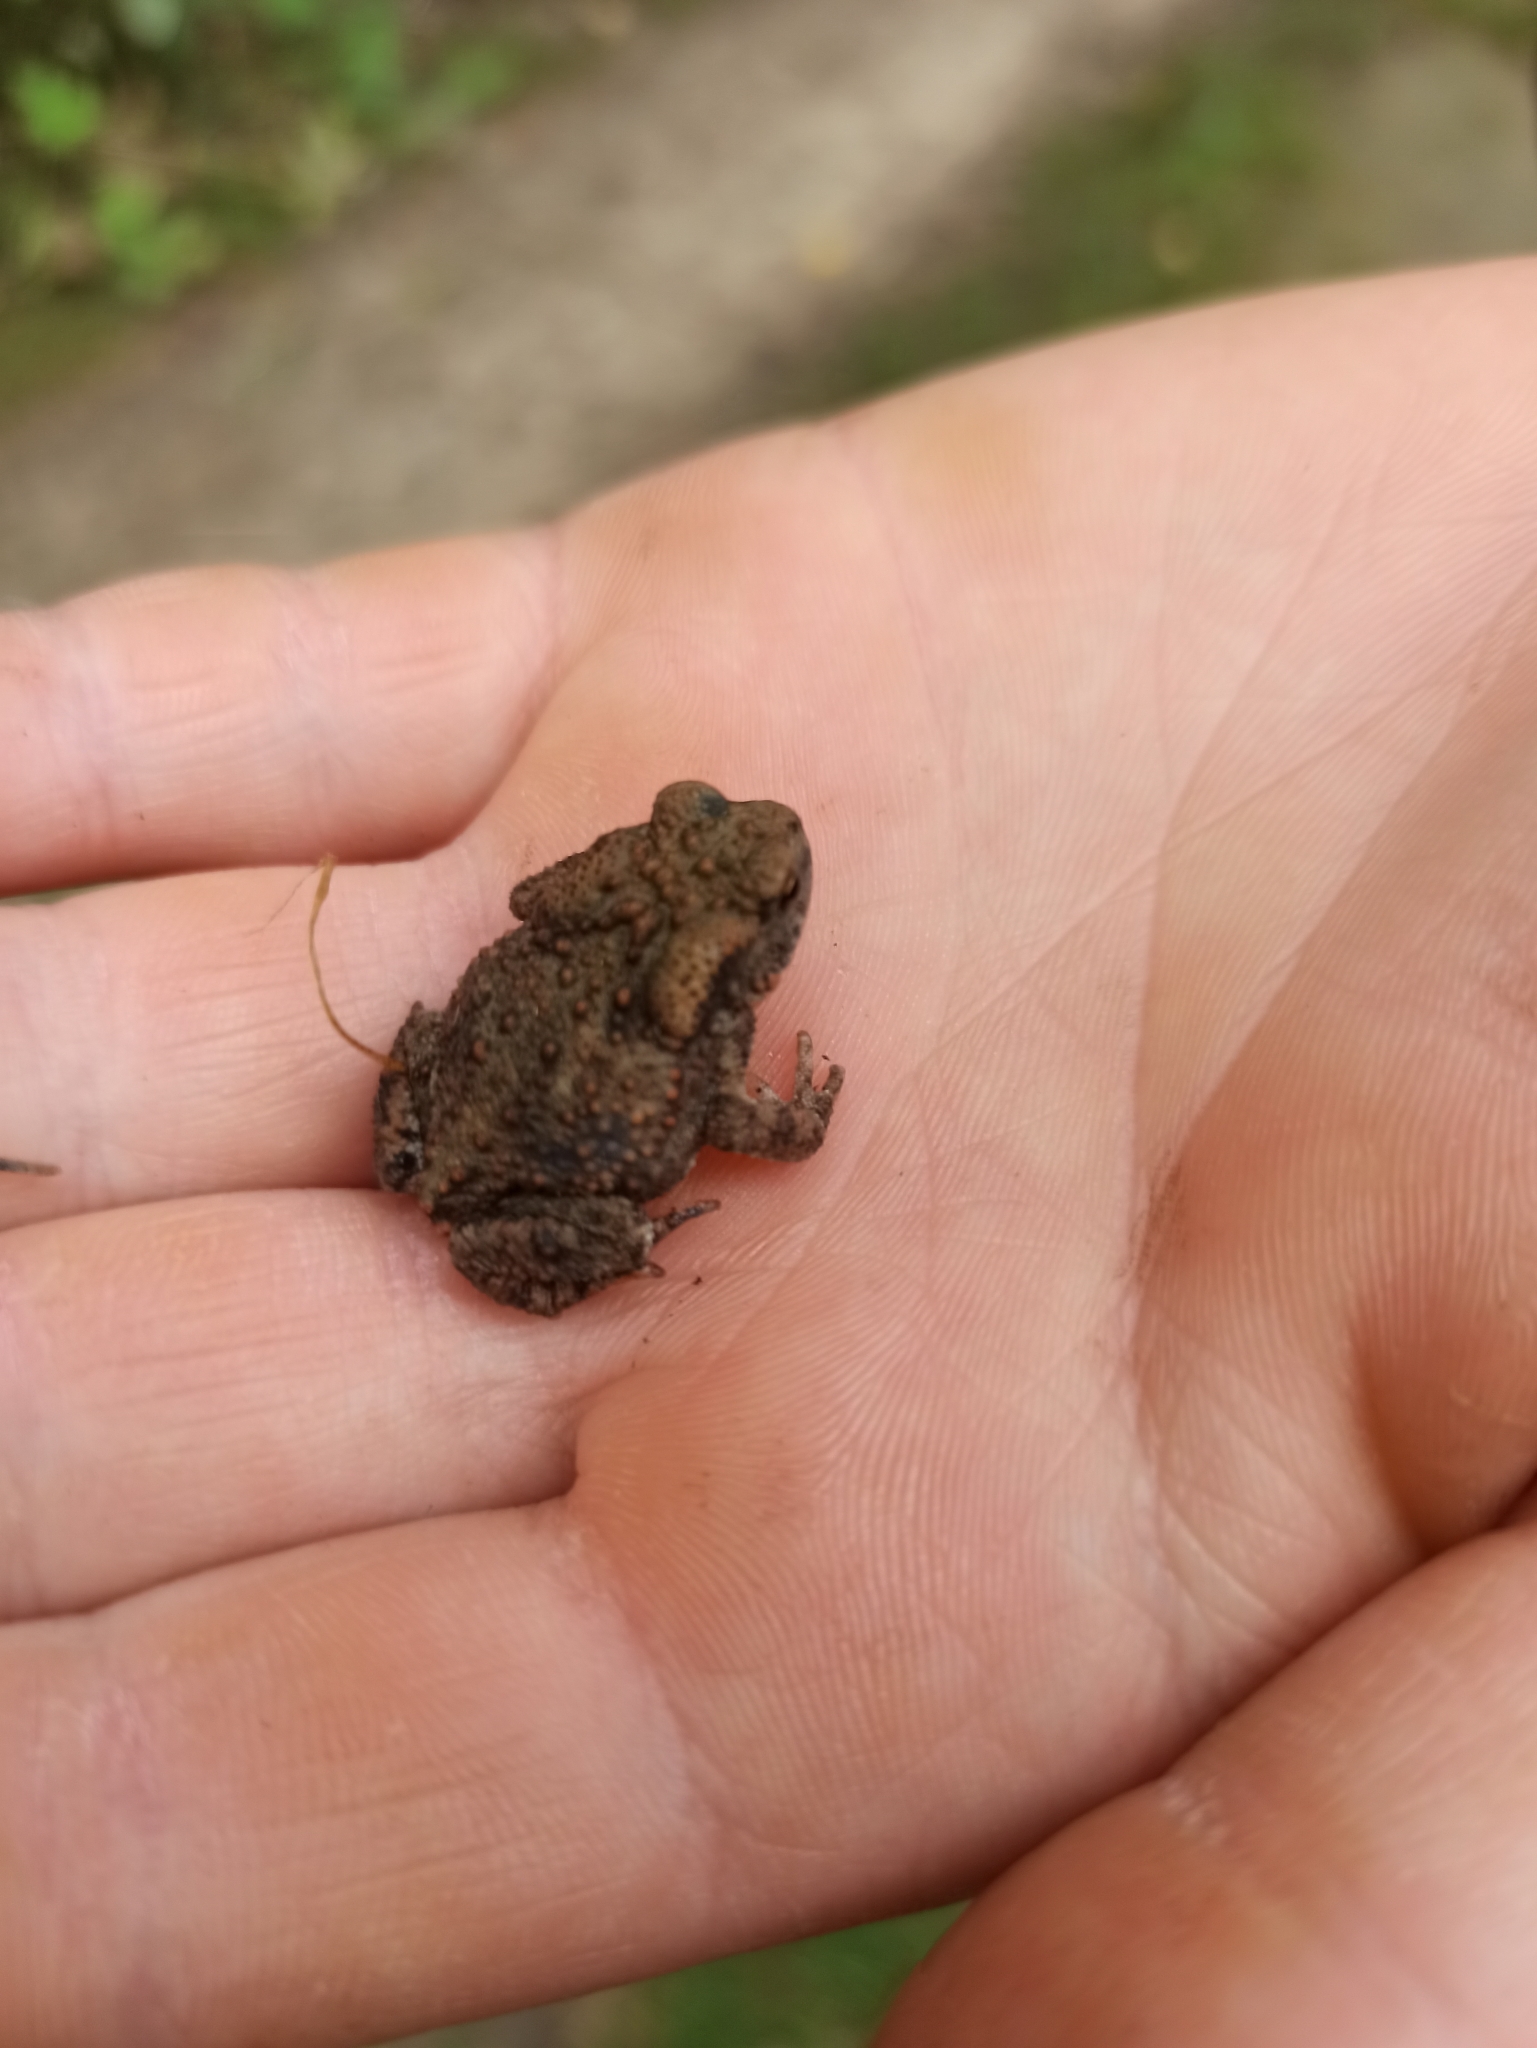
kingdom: Animalia
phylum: Chordata
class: Amphibia
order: Anura
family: Bufonidae
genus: Bufo
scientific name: Bufo bufo
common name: Common toad
